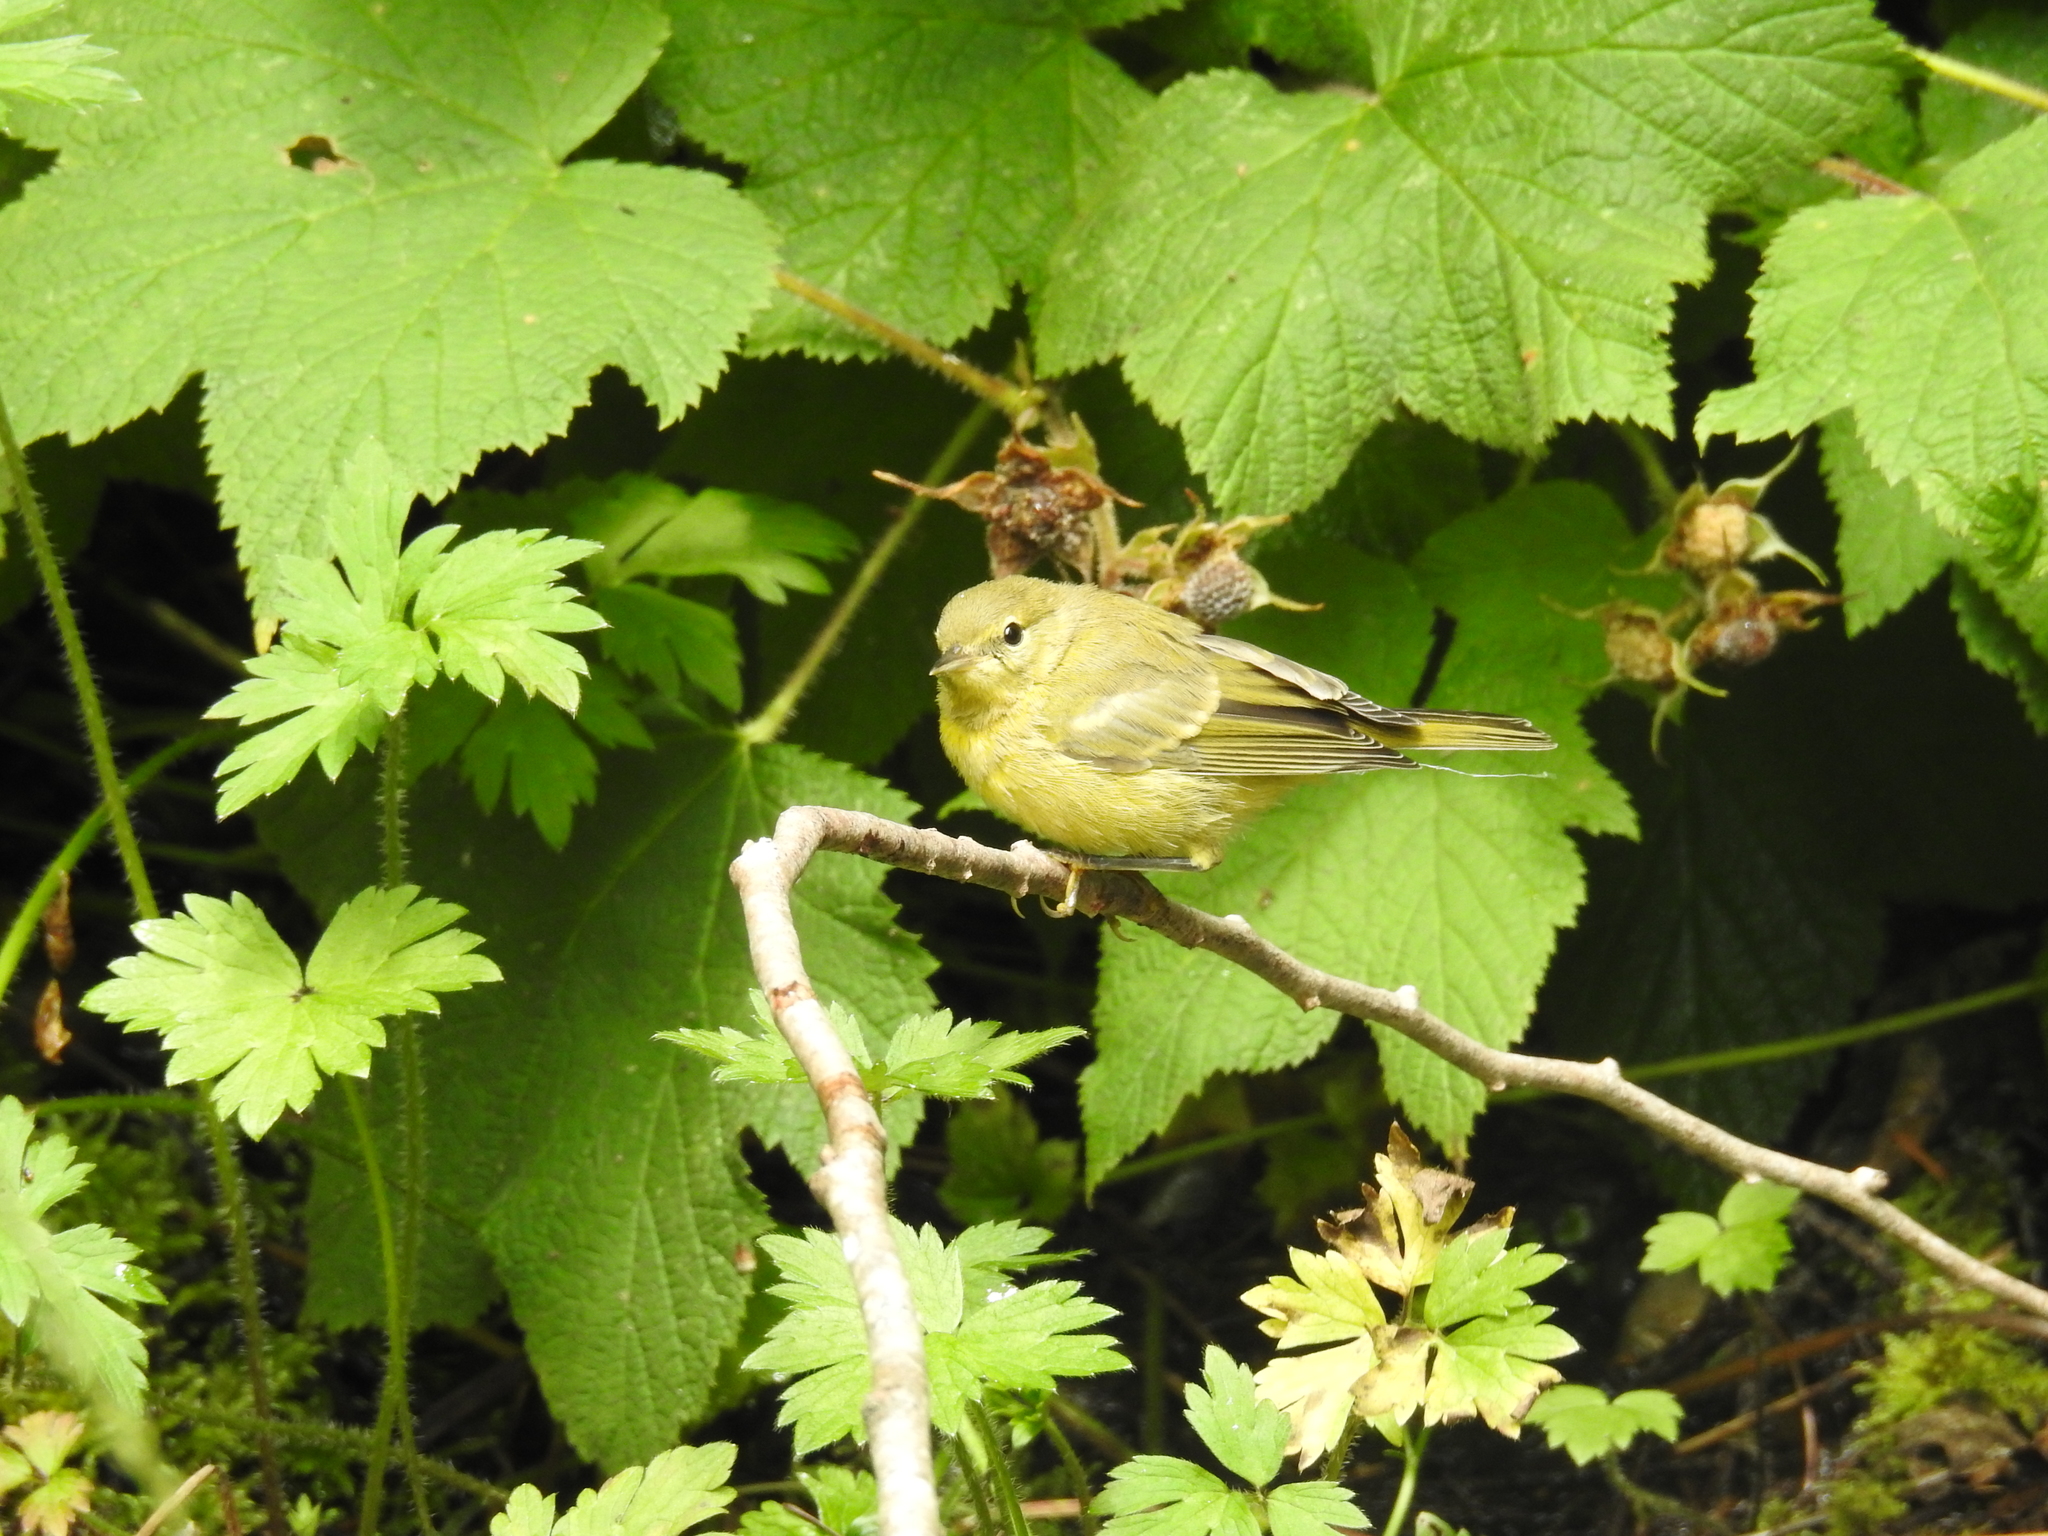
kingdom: Animalia
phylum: Chordata
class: Aves
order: Passeriformes
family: Parulidae
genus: Leiothlypis
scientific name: Leiothlypis celata
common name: Orange-crowned warbler
